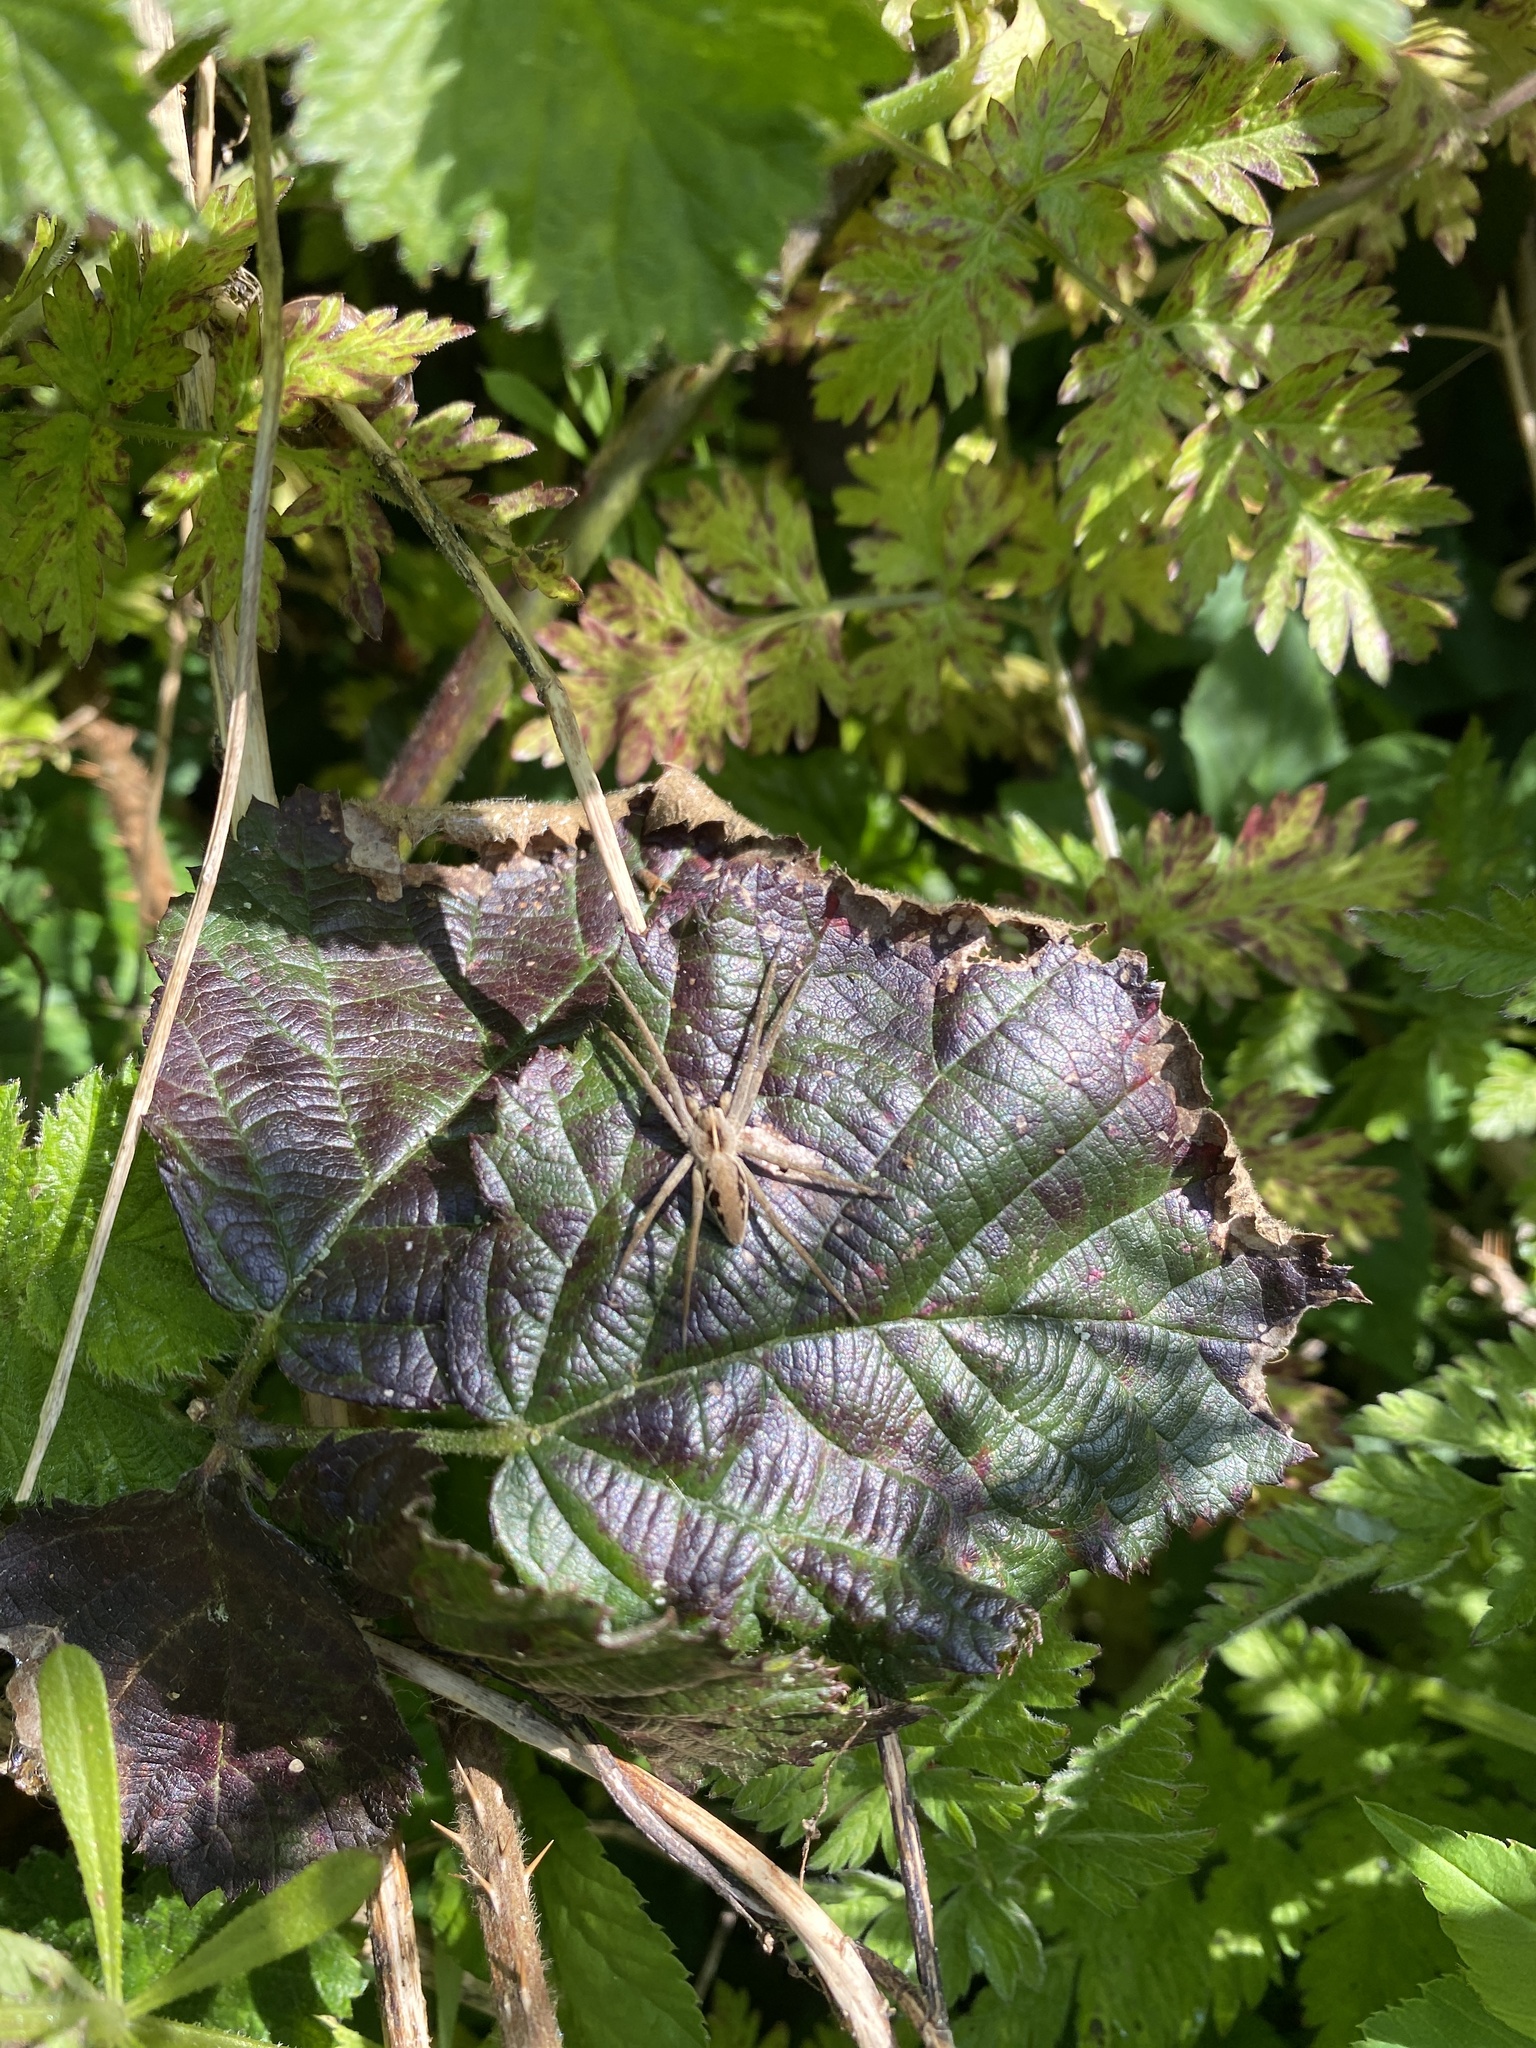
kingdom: Animalia
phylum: Arthropoda
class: Arachnida
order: Araneae
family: Pisauridae
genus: Pisaura
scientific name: Pisaura mirabilis
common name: Tent spider
